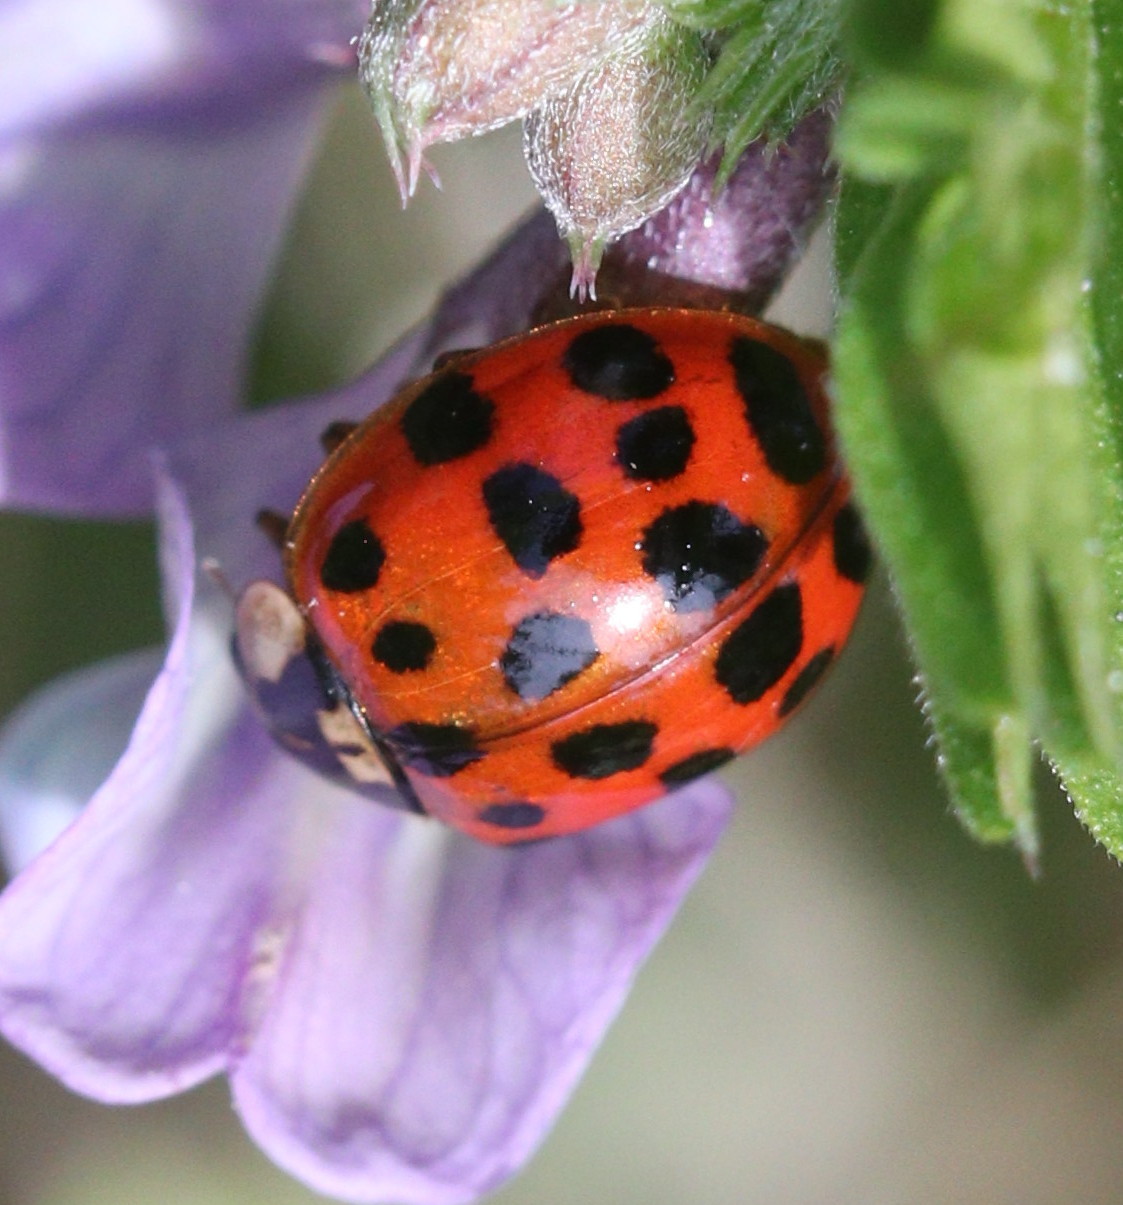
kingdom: Animalia
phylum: Arthropoda
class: Insecta
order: Coleoptera
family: Coccinellidae
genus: Harmonia
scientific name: Harmonia axyridis
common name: Harlequin ladybird
